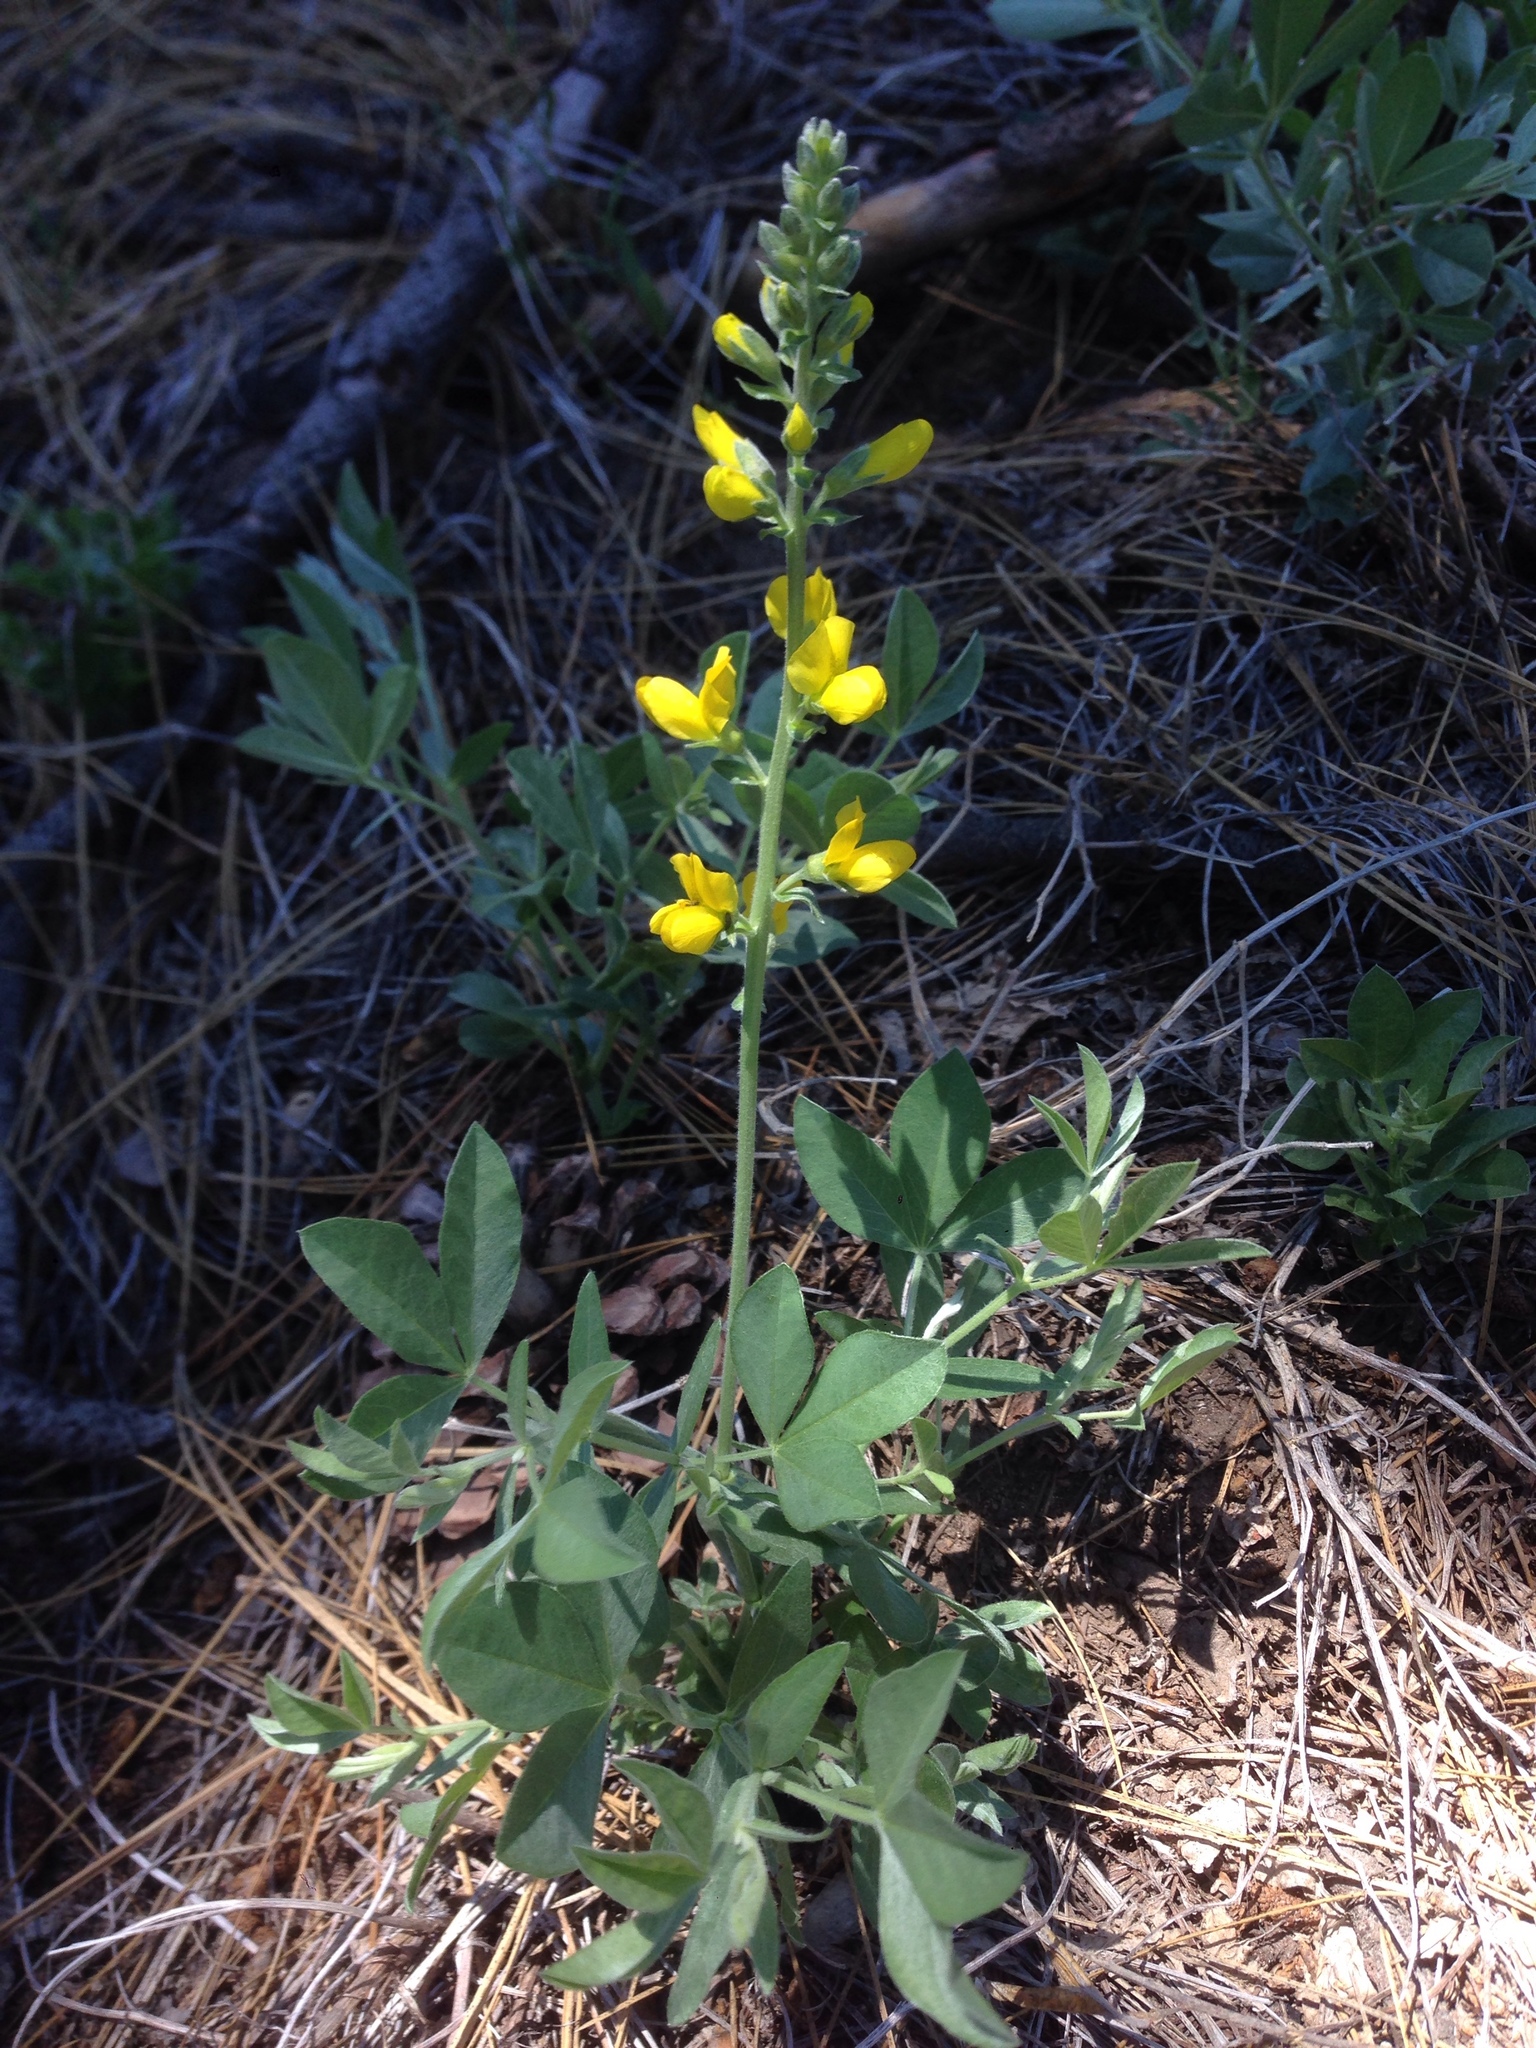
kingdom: Plantae
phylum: Tracheophyta
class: Magnoliopsida
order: Fabales
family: Fabaceae
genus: Thermopsis
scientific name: Thermopsis californica
